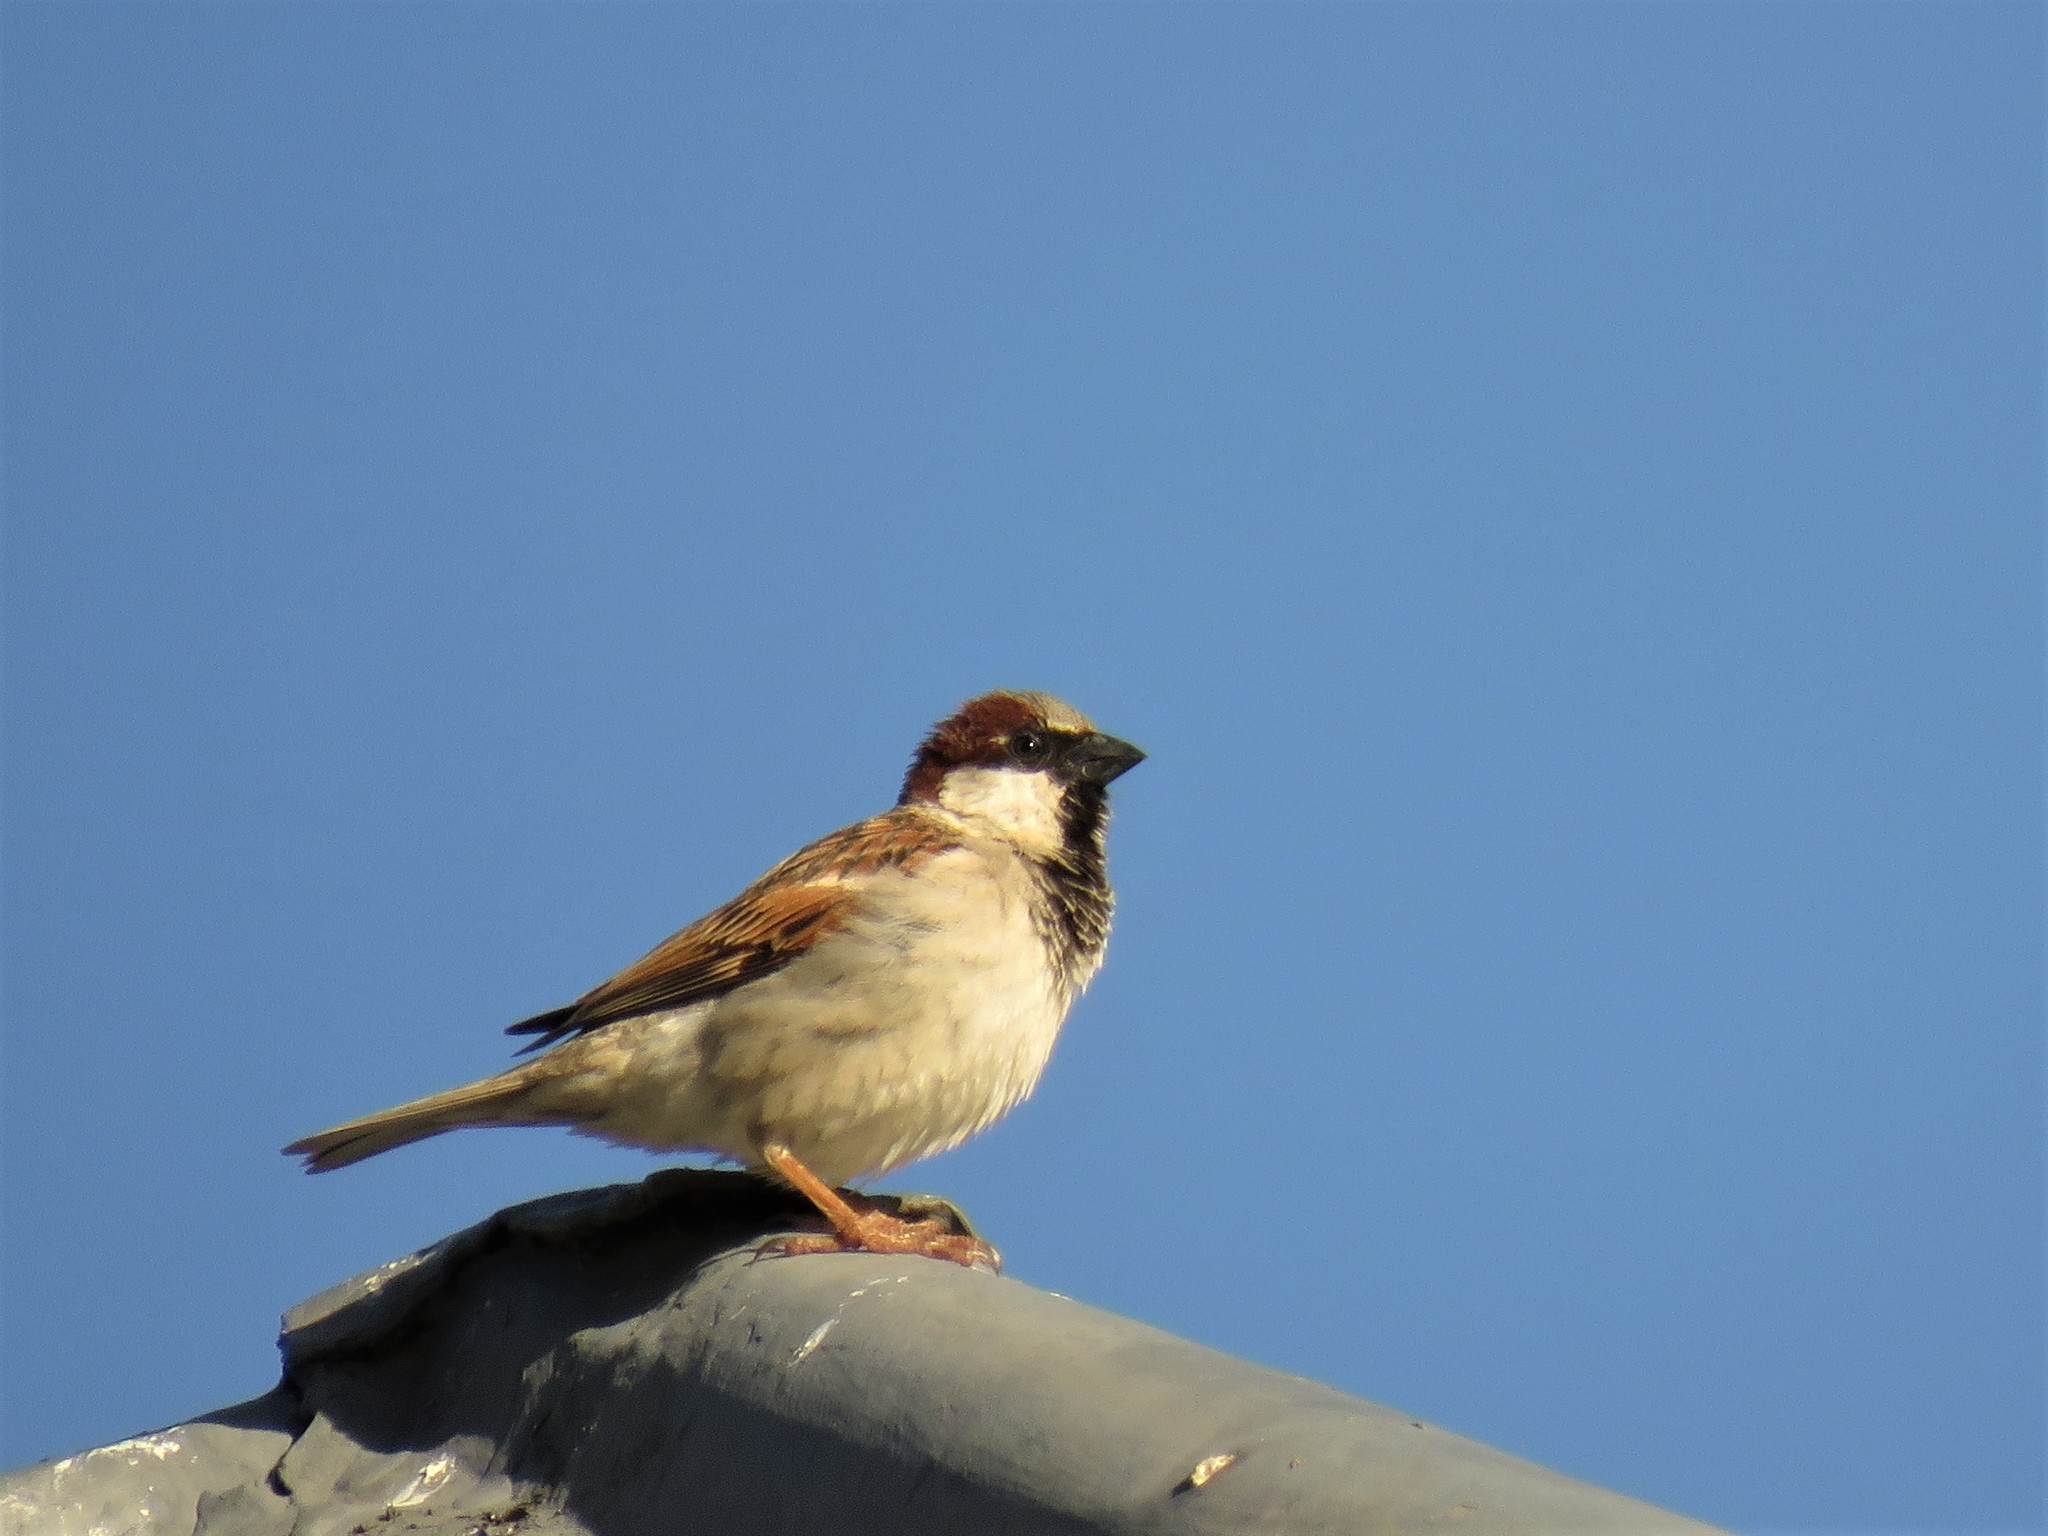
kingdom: Animalia
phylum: Chordata
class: Aves
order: Passeriformes
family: Passeridae
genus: Passer
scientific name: Passer domesticus
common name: House sparrow
